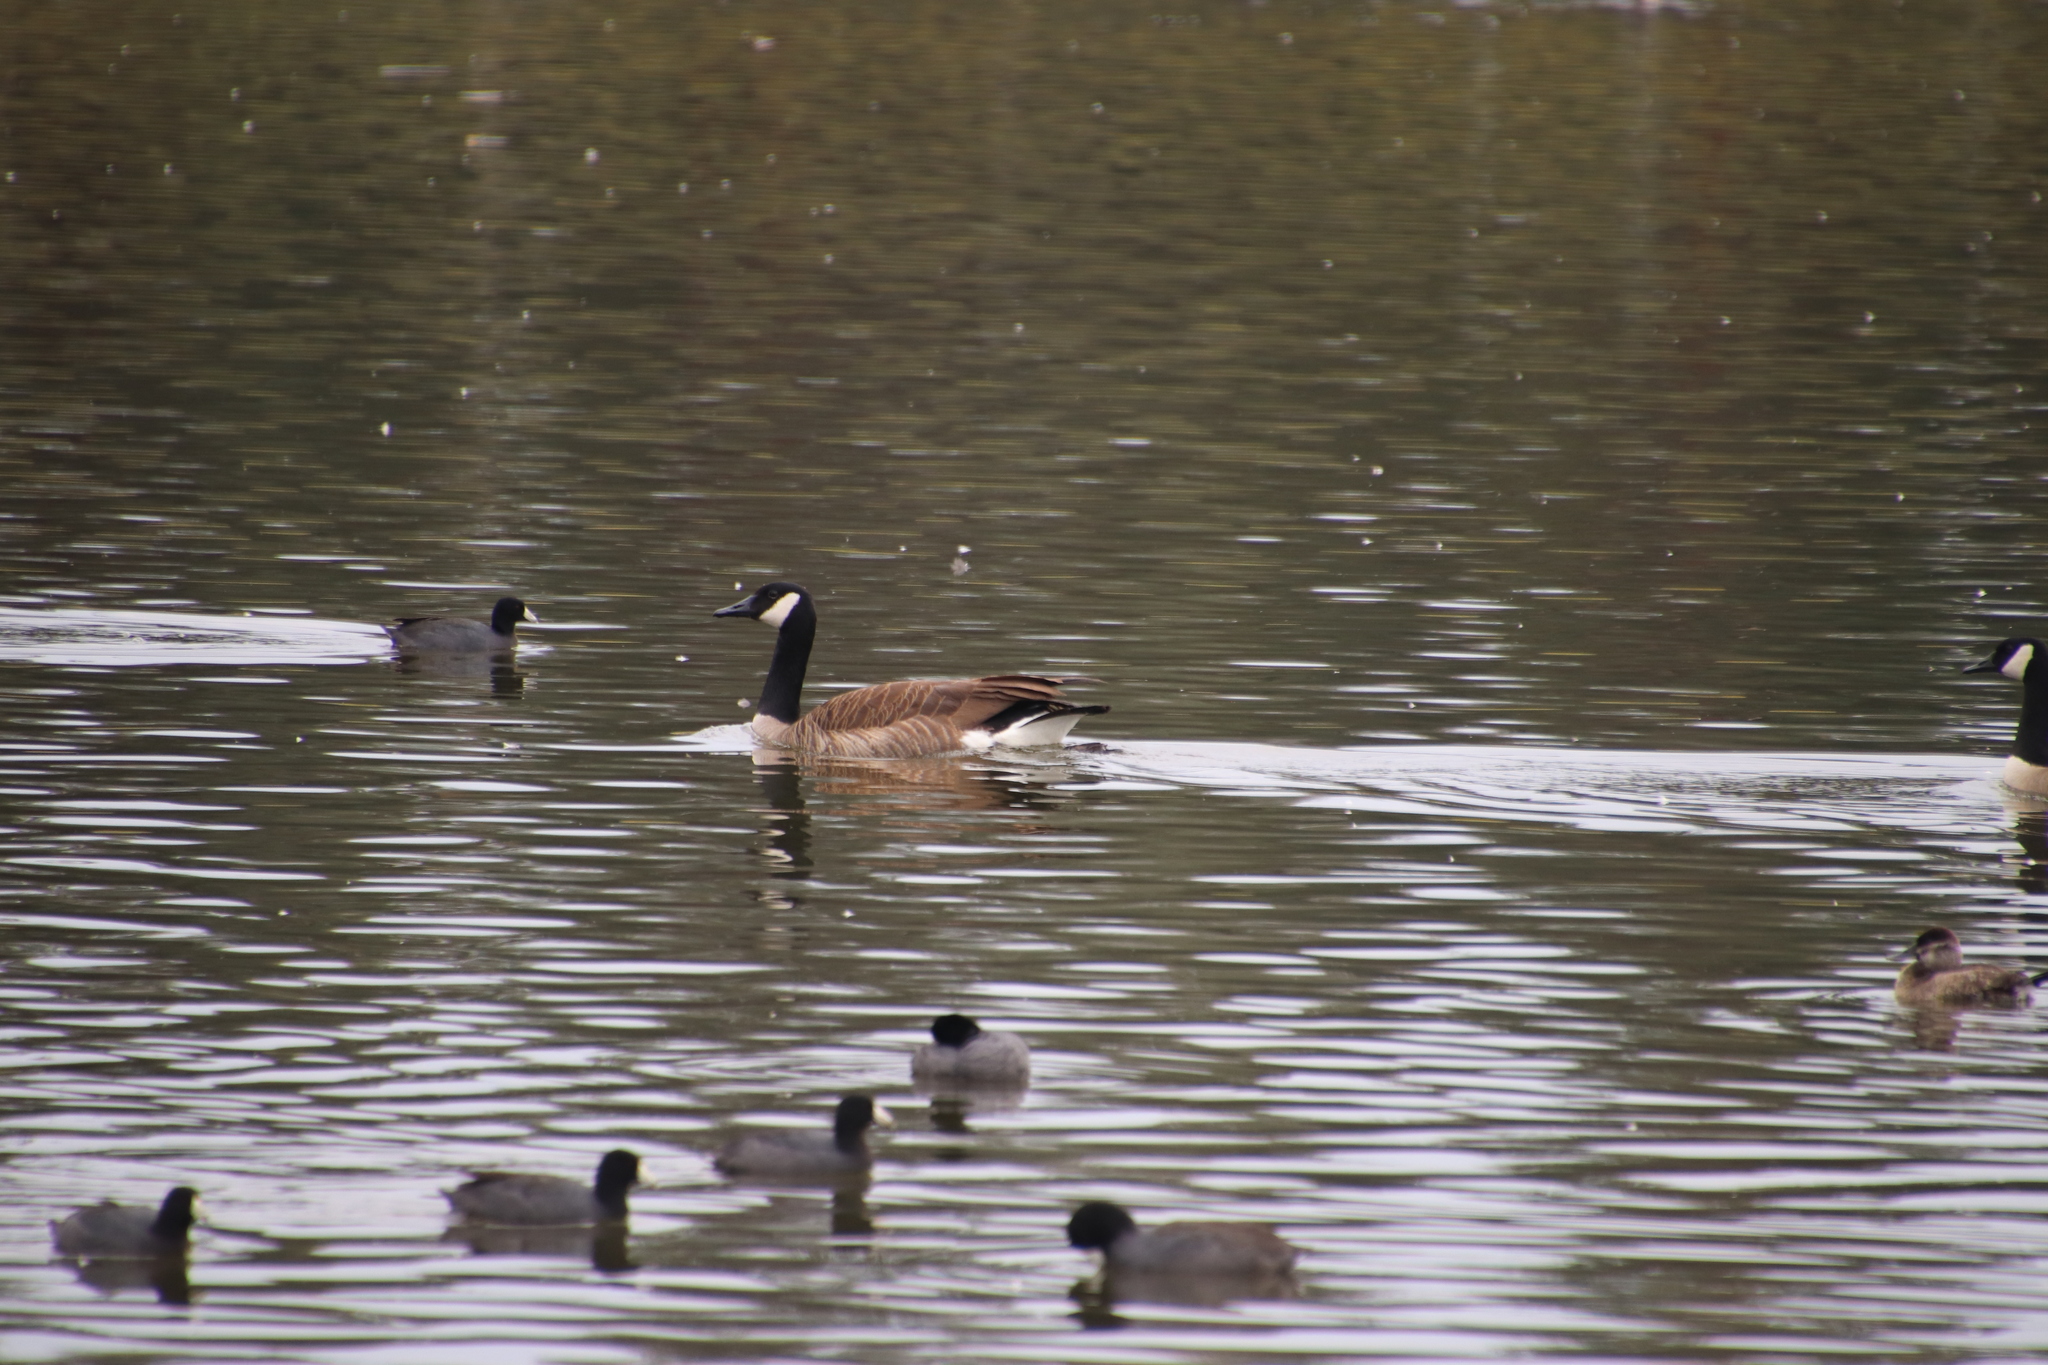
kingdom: Animalia
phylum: Chordata
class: Aves
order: Anseriformes
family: Anatidae
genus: Branta
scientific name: Branta canadensis
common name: Canada goose
